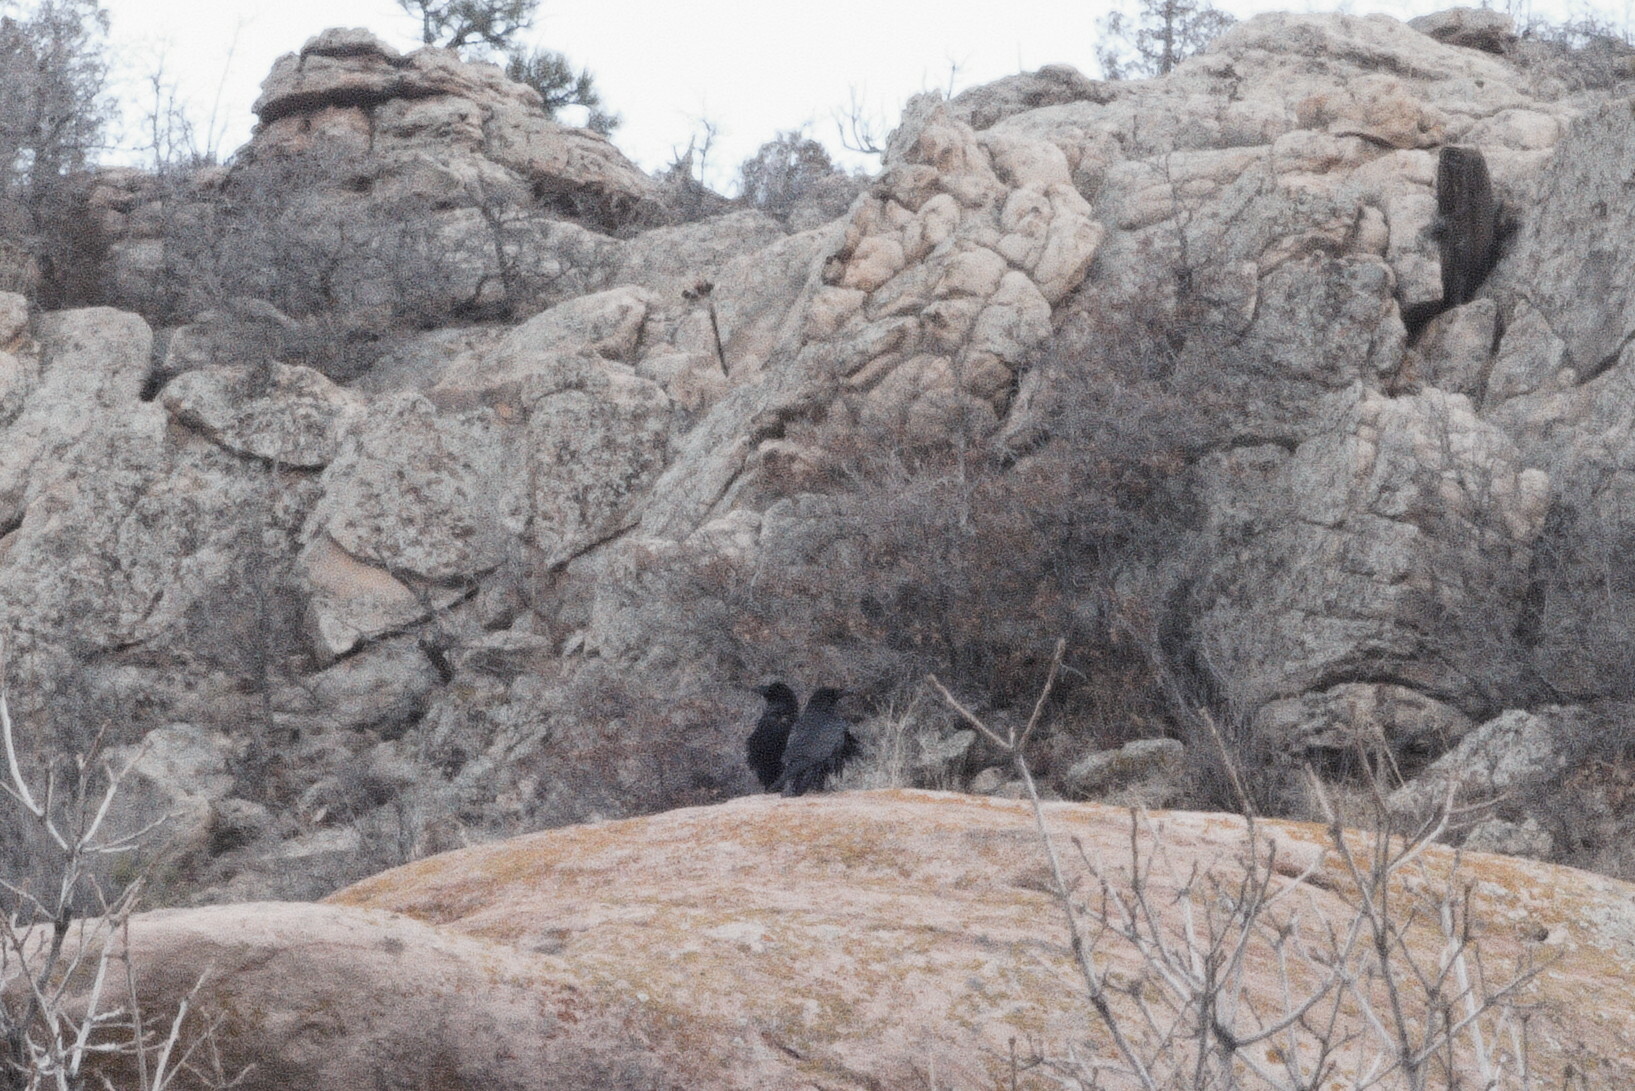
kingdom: Animalia
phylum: Chordata
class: Aves
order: Passeriformes
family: Corvidae
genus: Corvus
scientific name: Corvus corax
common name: Common raven
